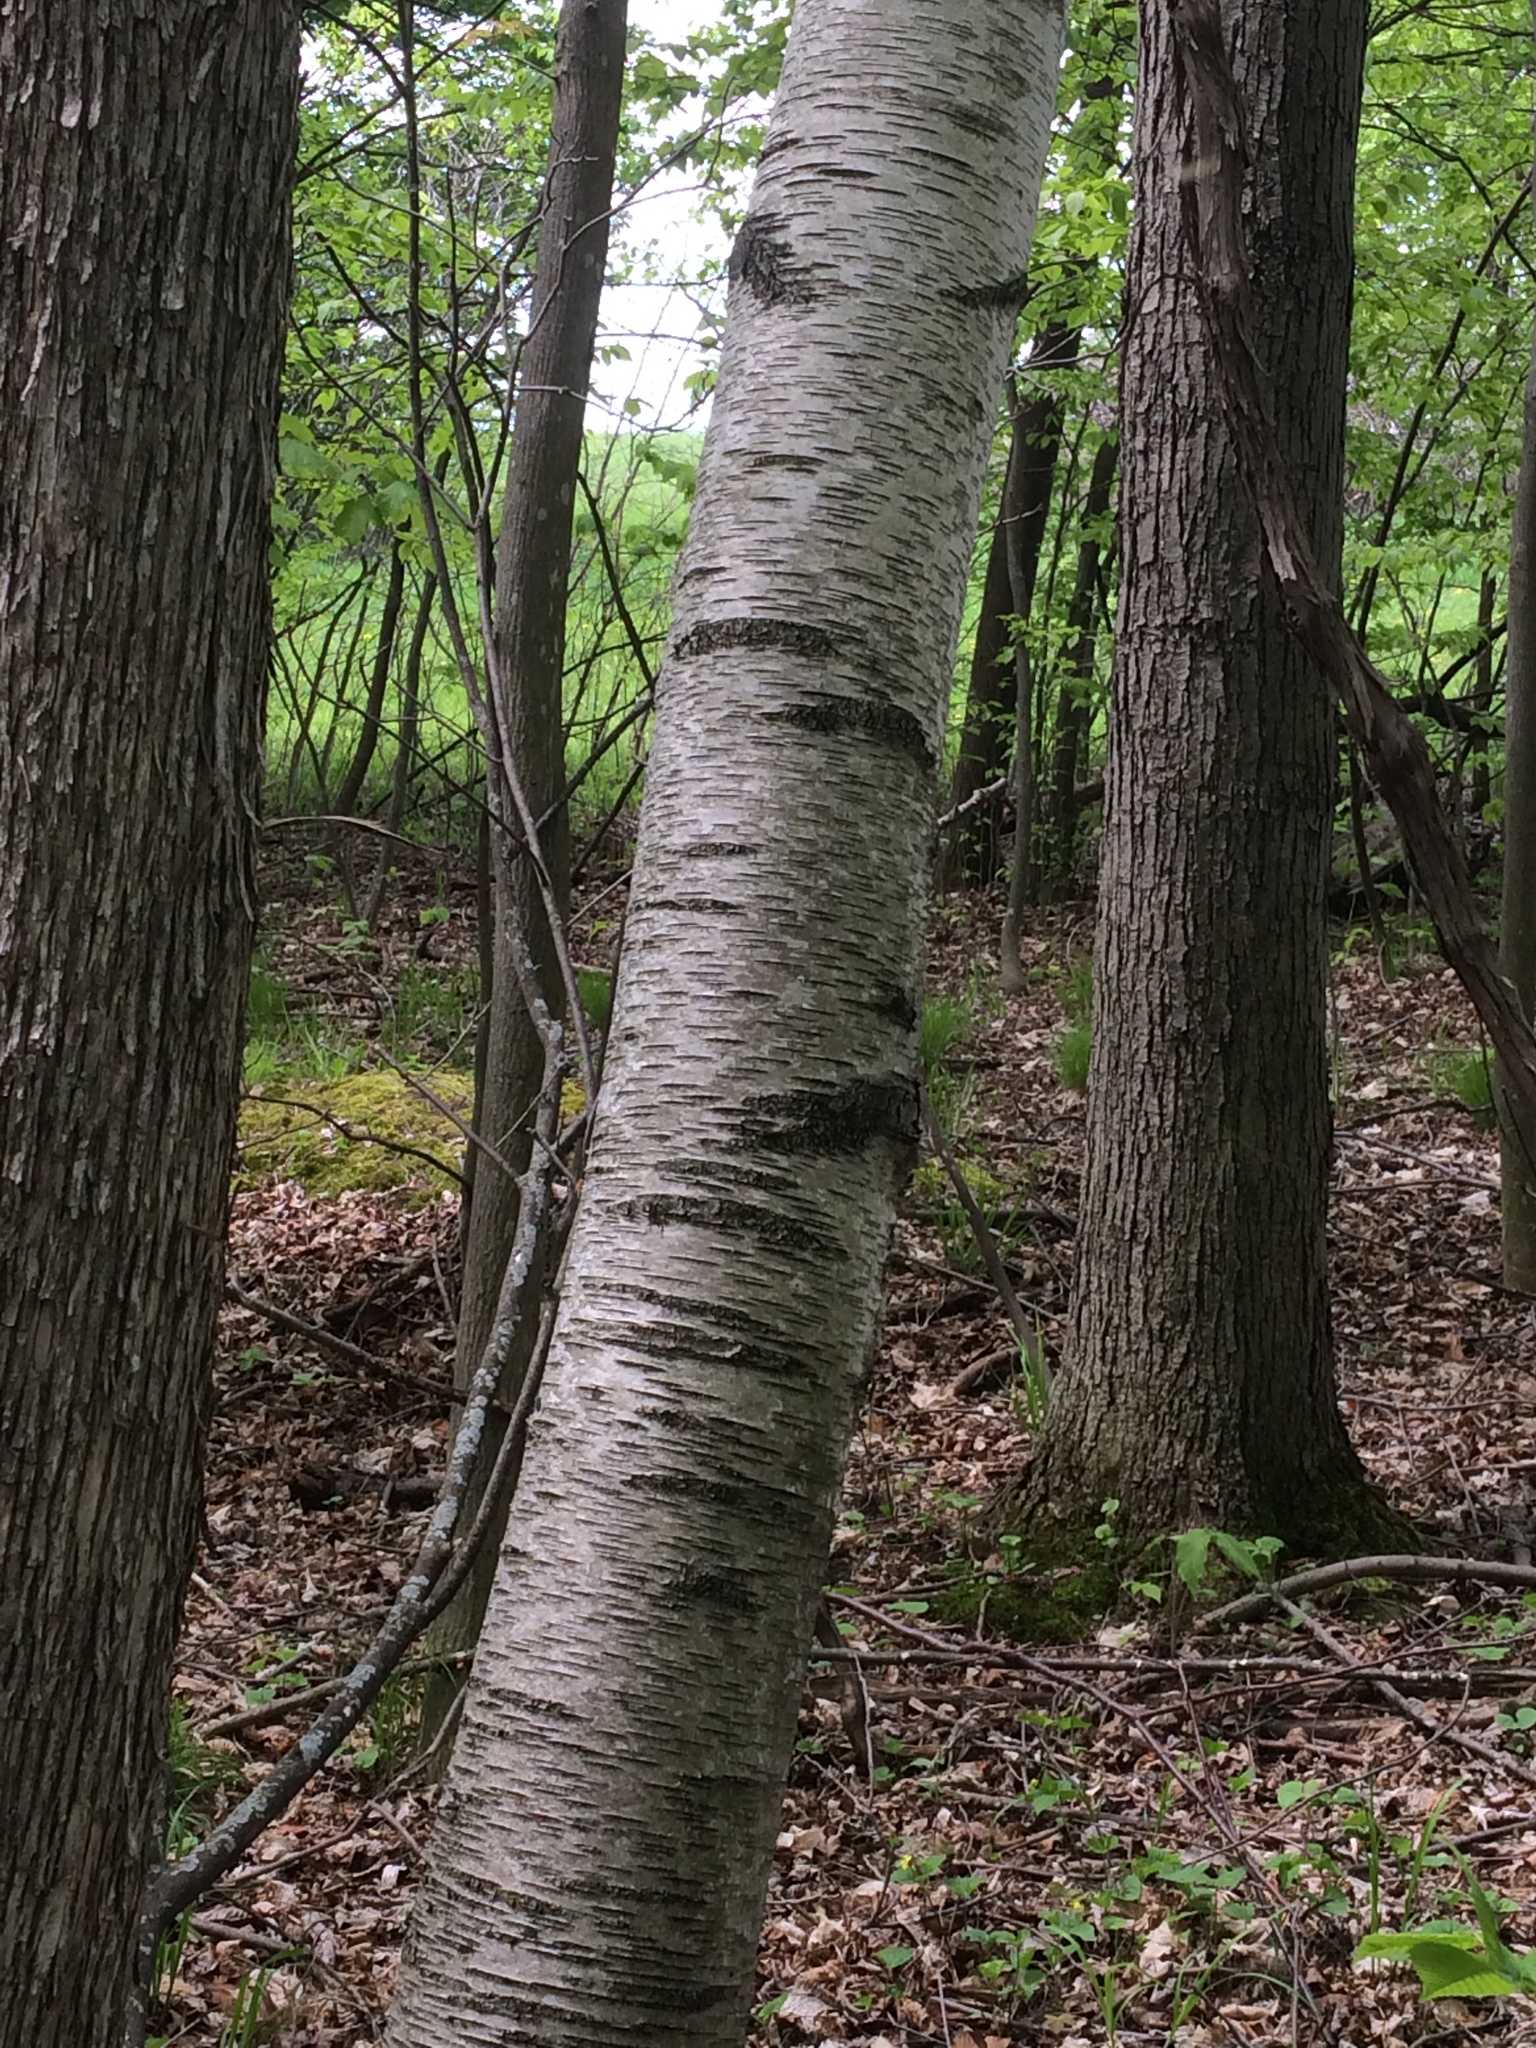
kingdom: Plantae
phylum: Tracheophyta
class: Magnoliopsida
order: Fagales
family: Betulaceae
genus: Betula
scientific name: Betula populifolia
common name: Fire birch
